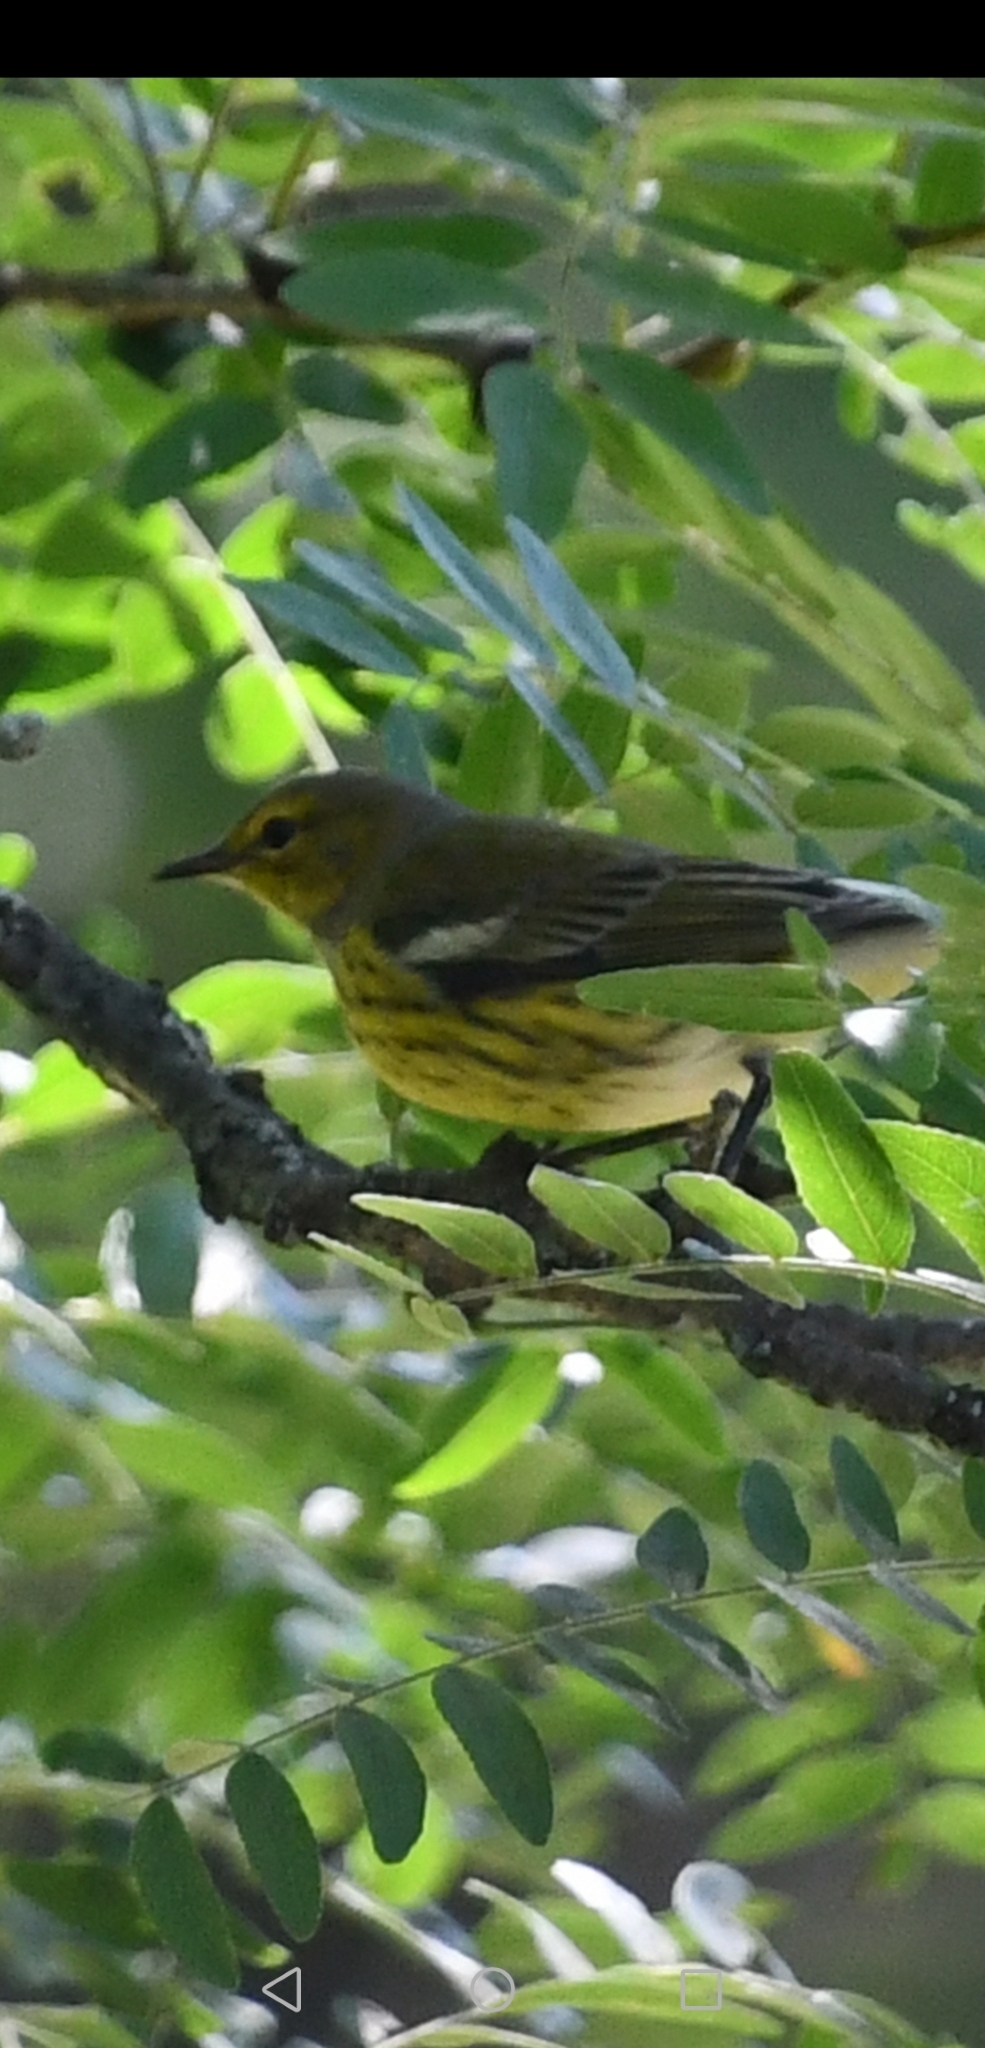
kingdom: Animalia
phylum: Chordata
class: Aves
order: Passeriformes
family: Parulidae
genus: Setophaga
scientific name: Setophaga tigrina
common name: Cape may warbler
